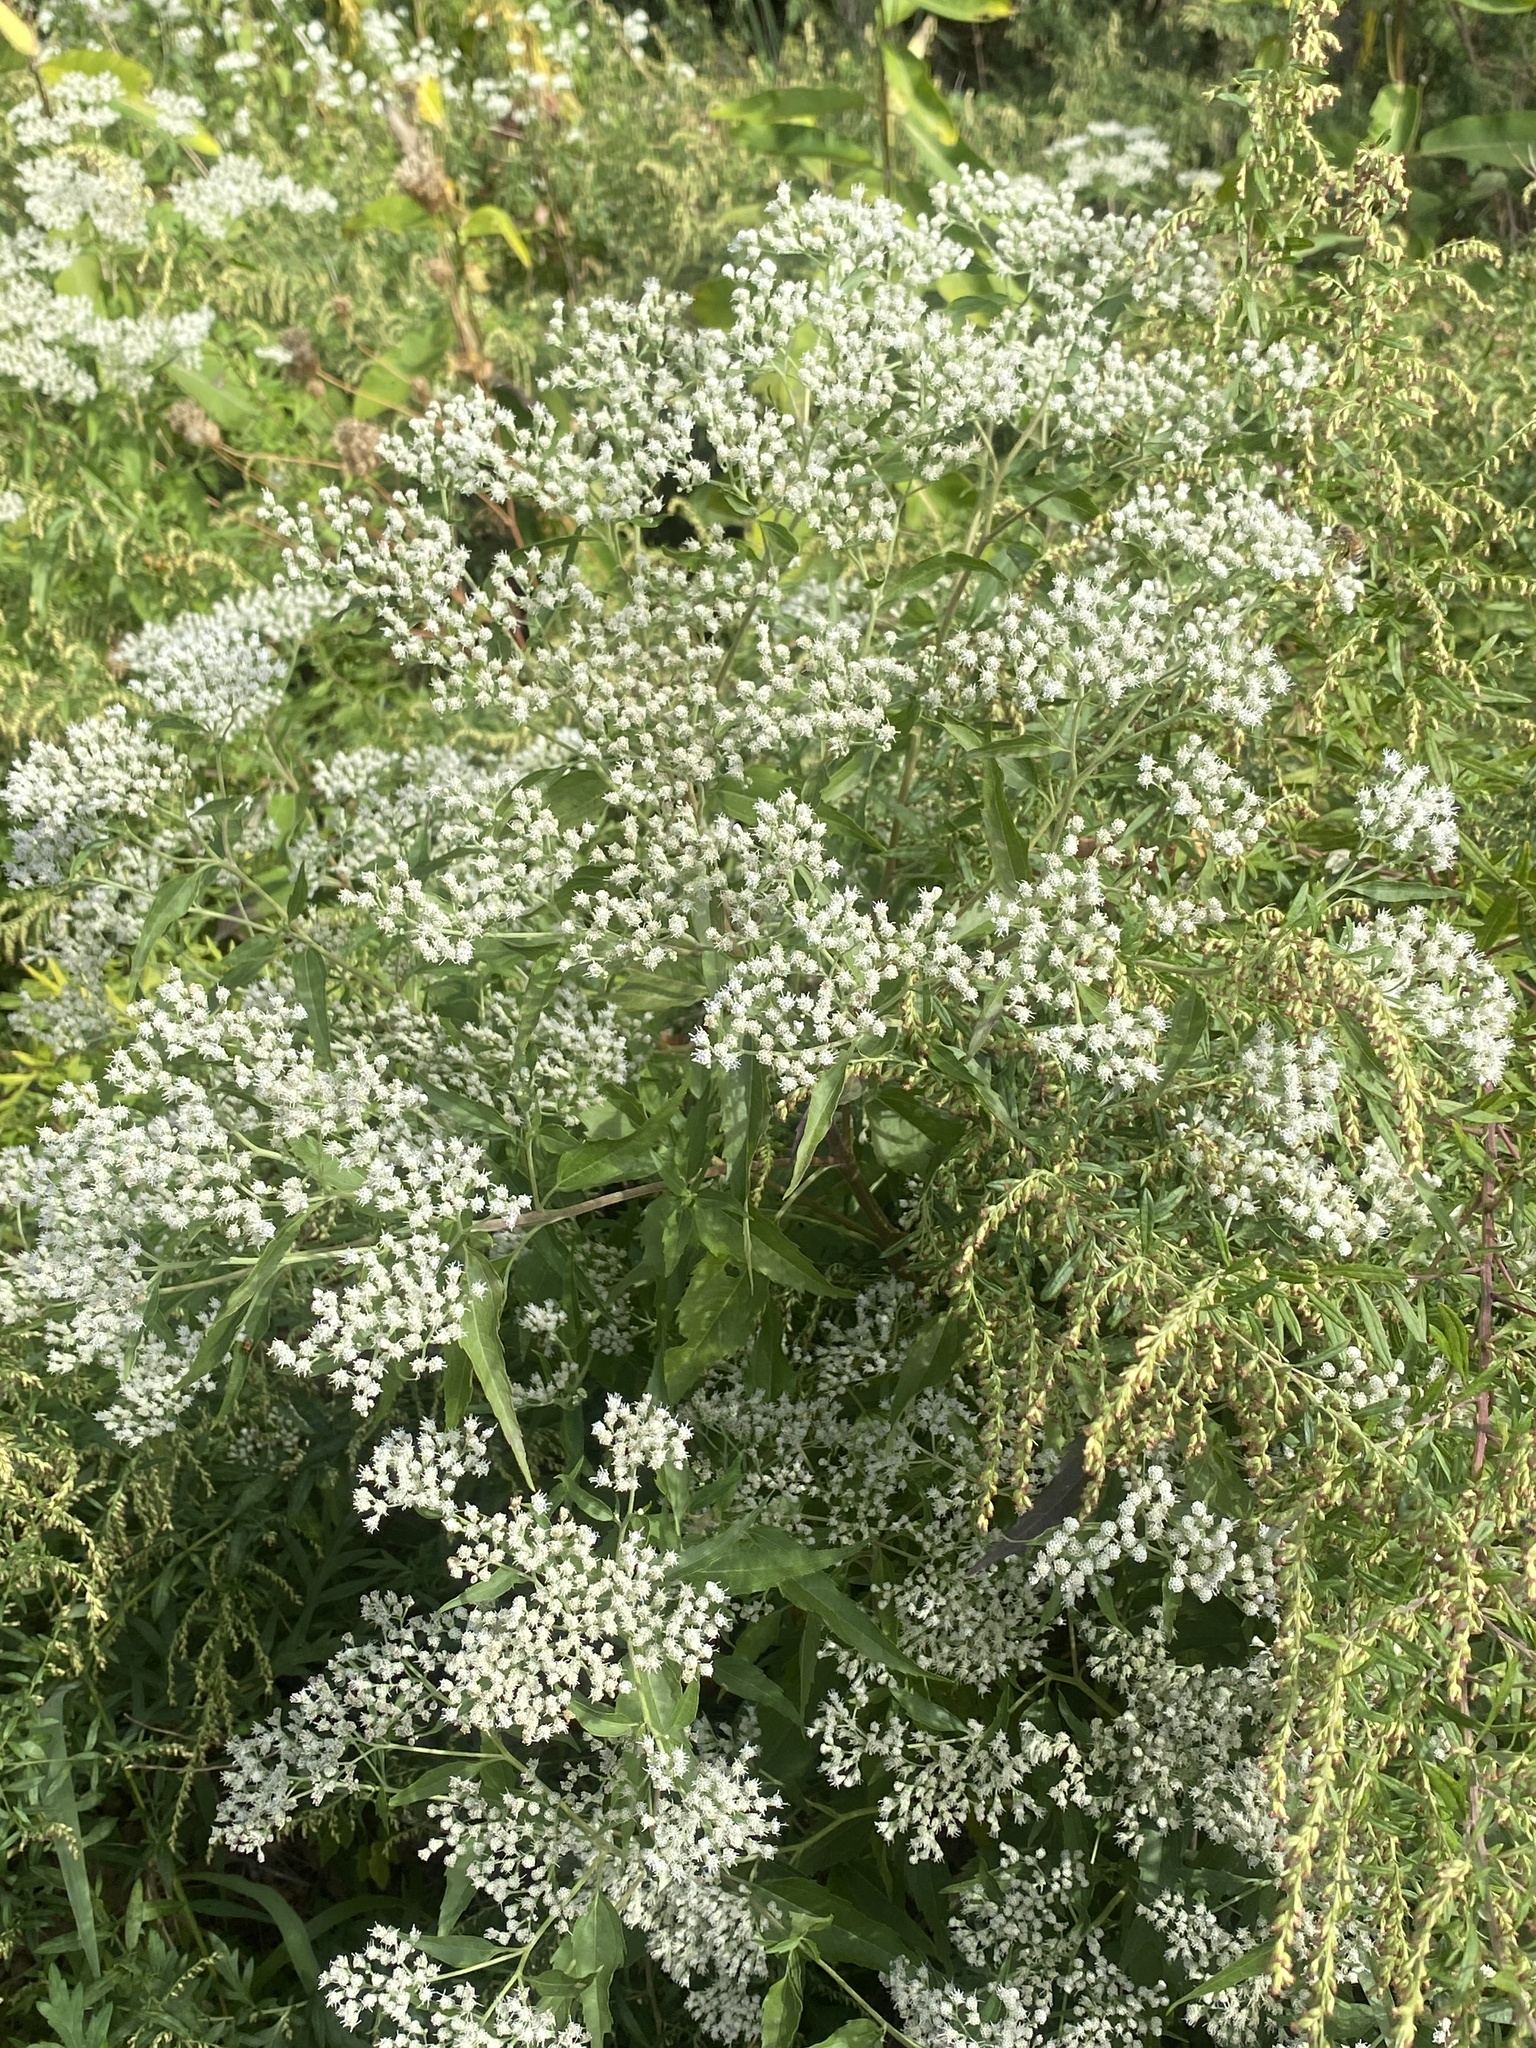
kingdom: Plantae
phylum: Tracheophyta
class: Magnoliopsida
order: Asterales
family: Asteraceae
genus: Eupatorium
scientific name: Eupatorium serotinum
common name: Late boneset
